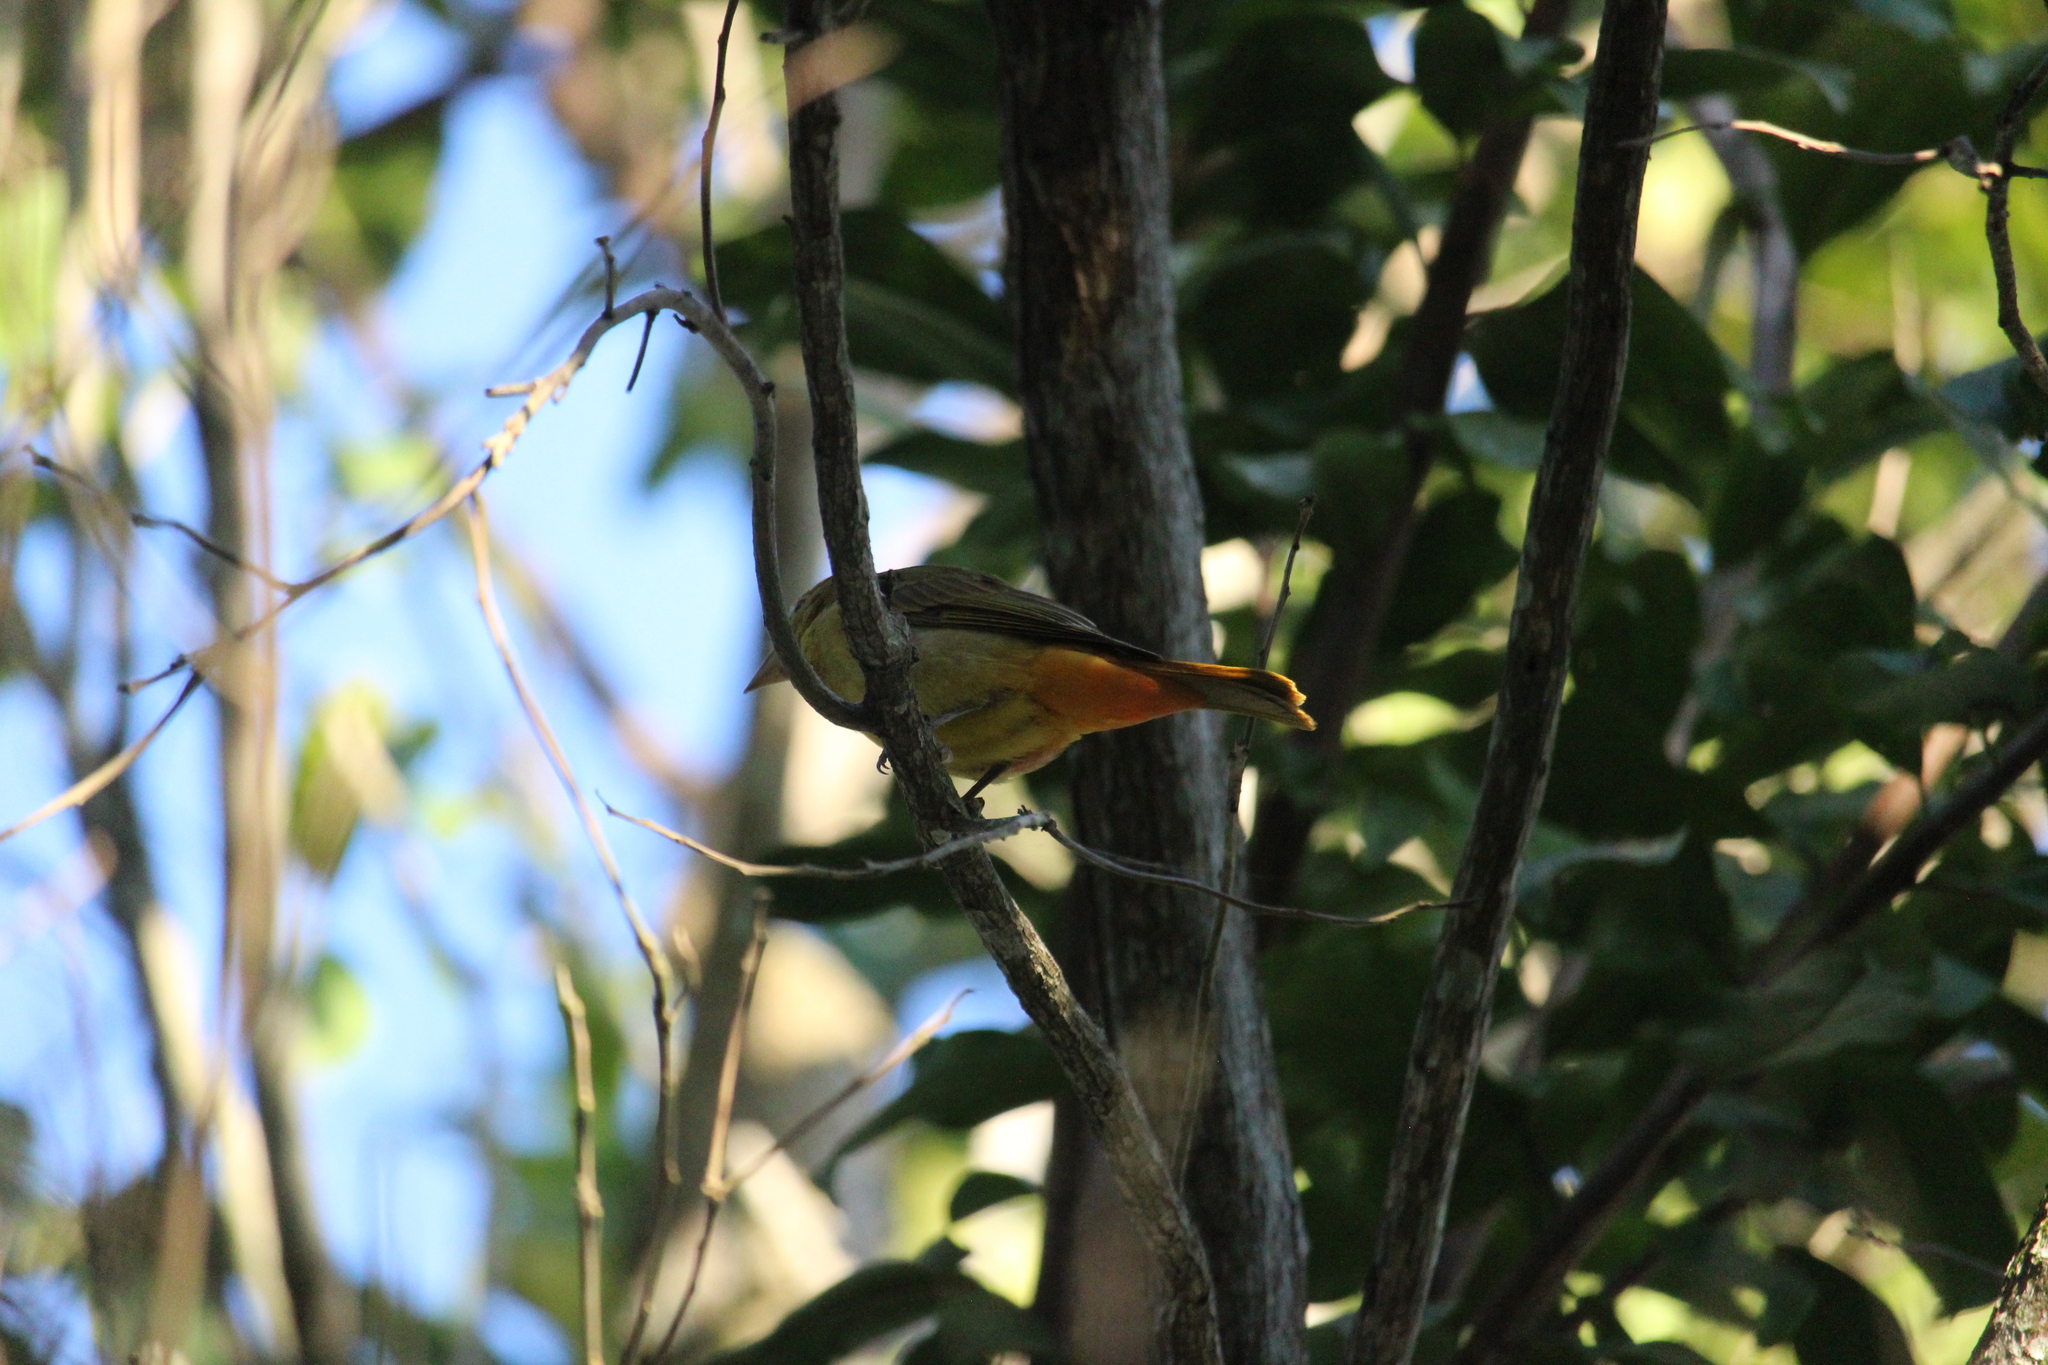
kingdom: Animalia
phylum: Chordata
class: Aves
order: Passeriformes
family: Cardinalidae
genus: Piranga
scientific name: Piranga rubra
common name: Summer tanager
